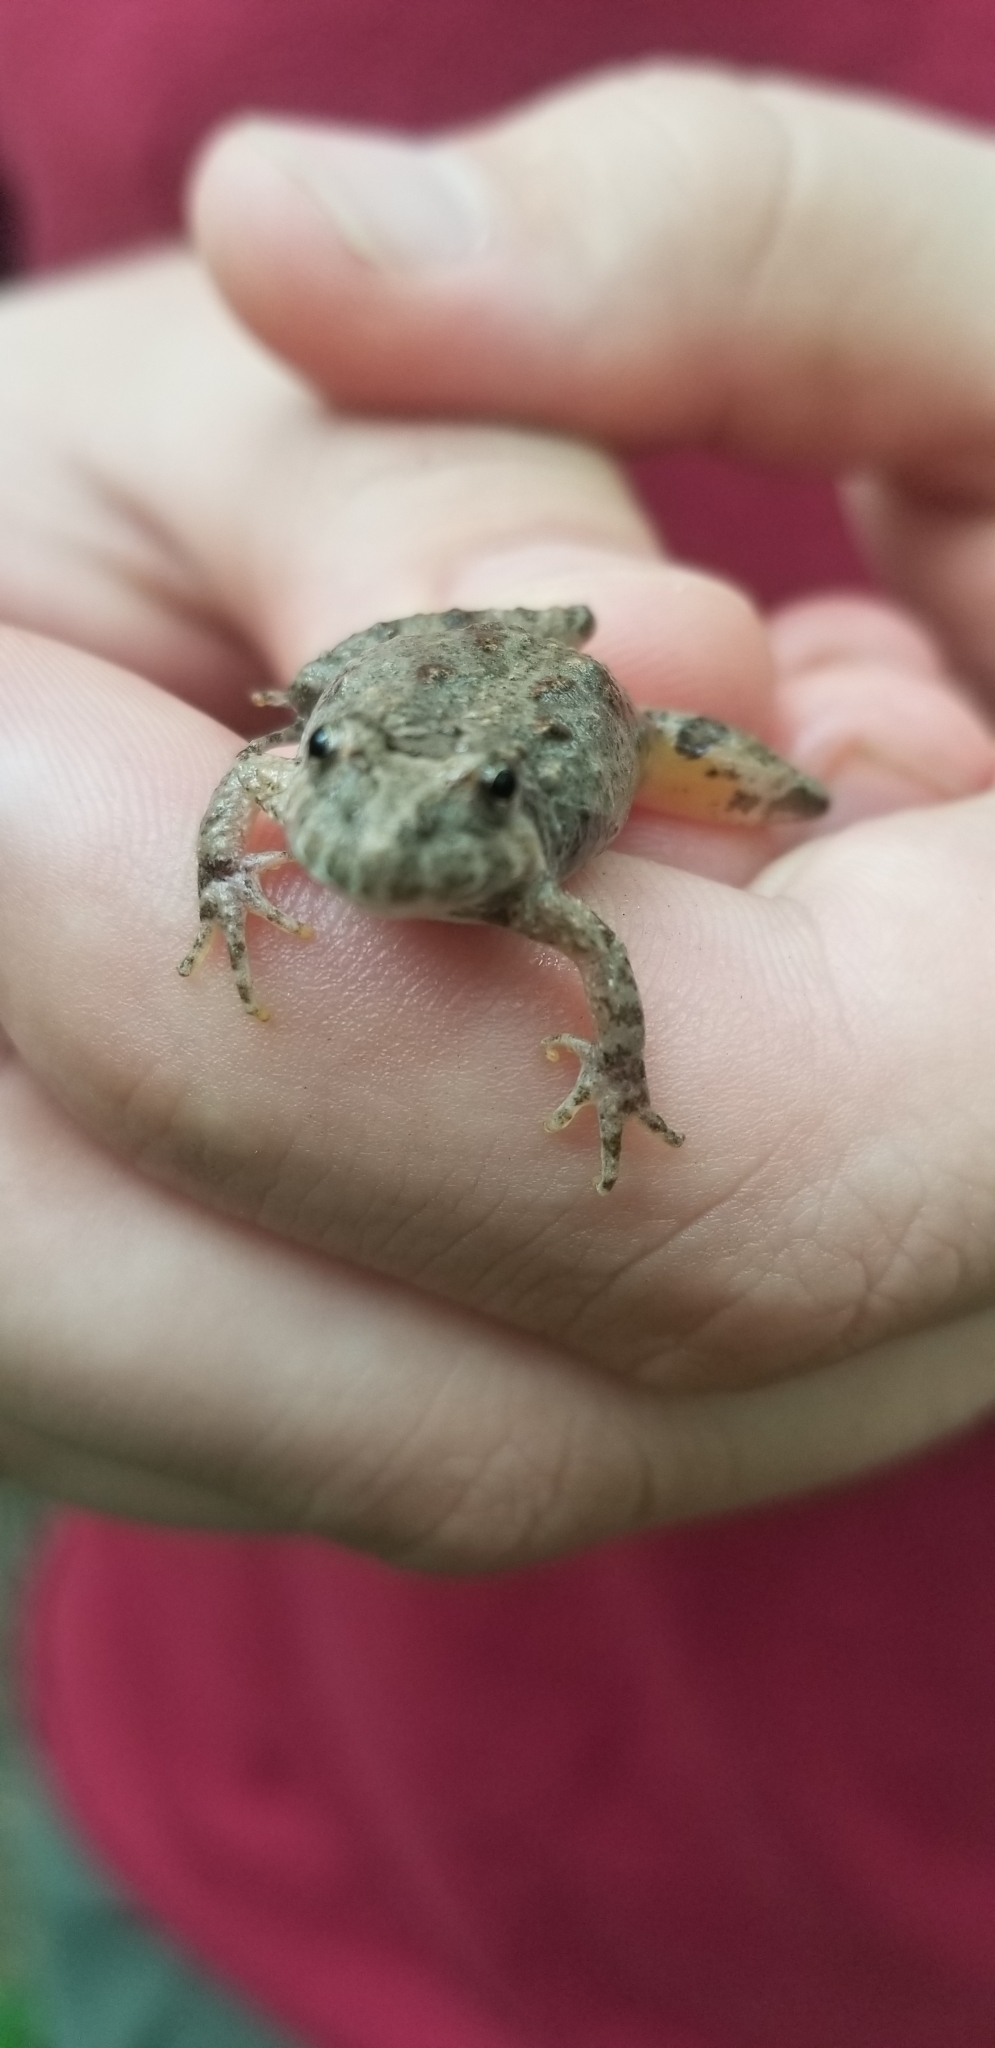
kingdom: Animalia
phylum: Chordata
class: Amphibia
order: Anura
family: Hylidae
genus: Acris
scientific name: Acris crepitans
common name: Northern cricket frog
